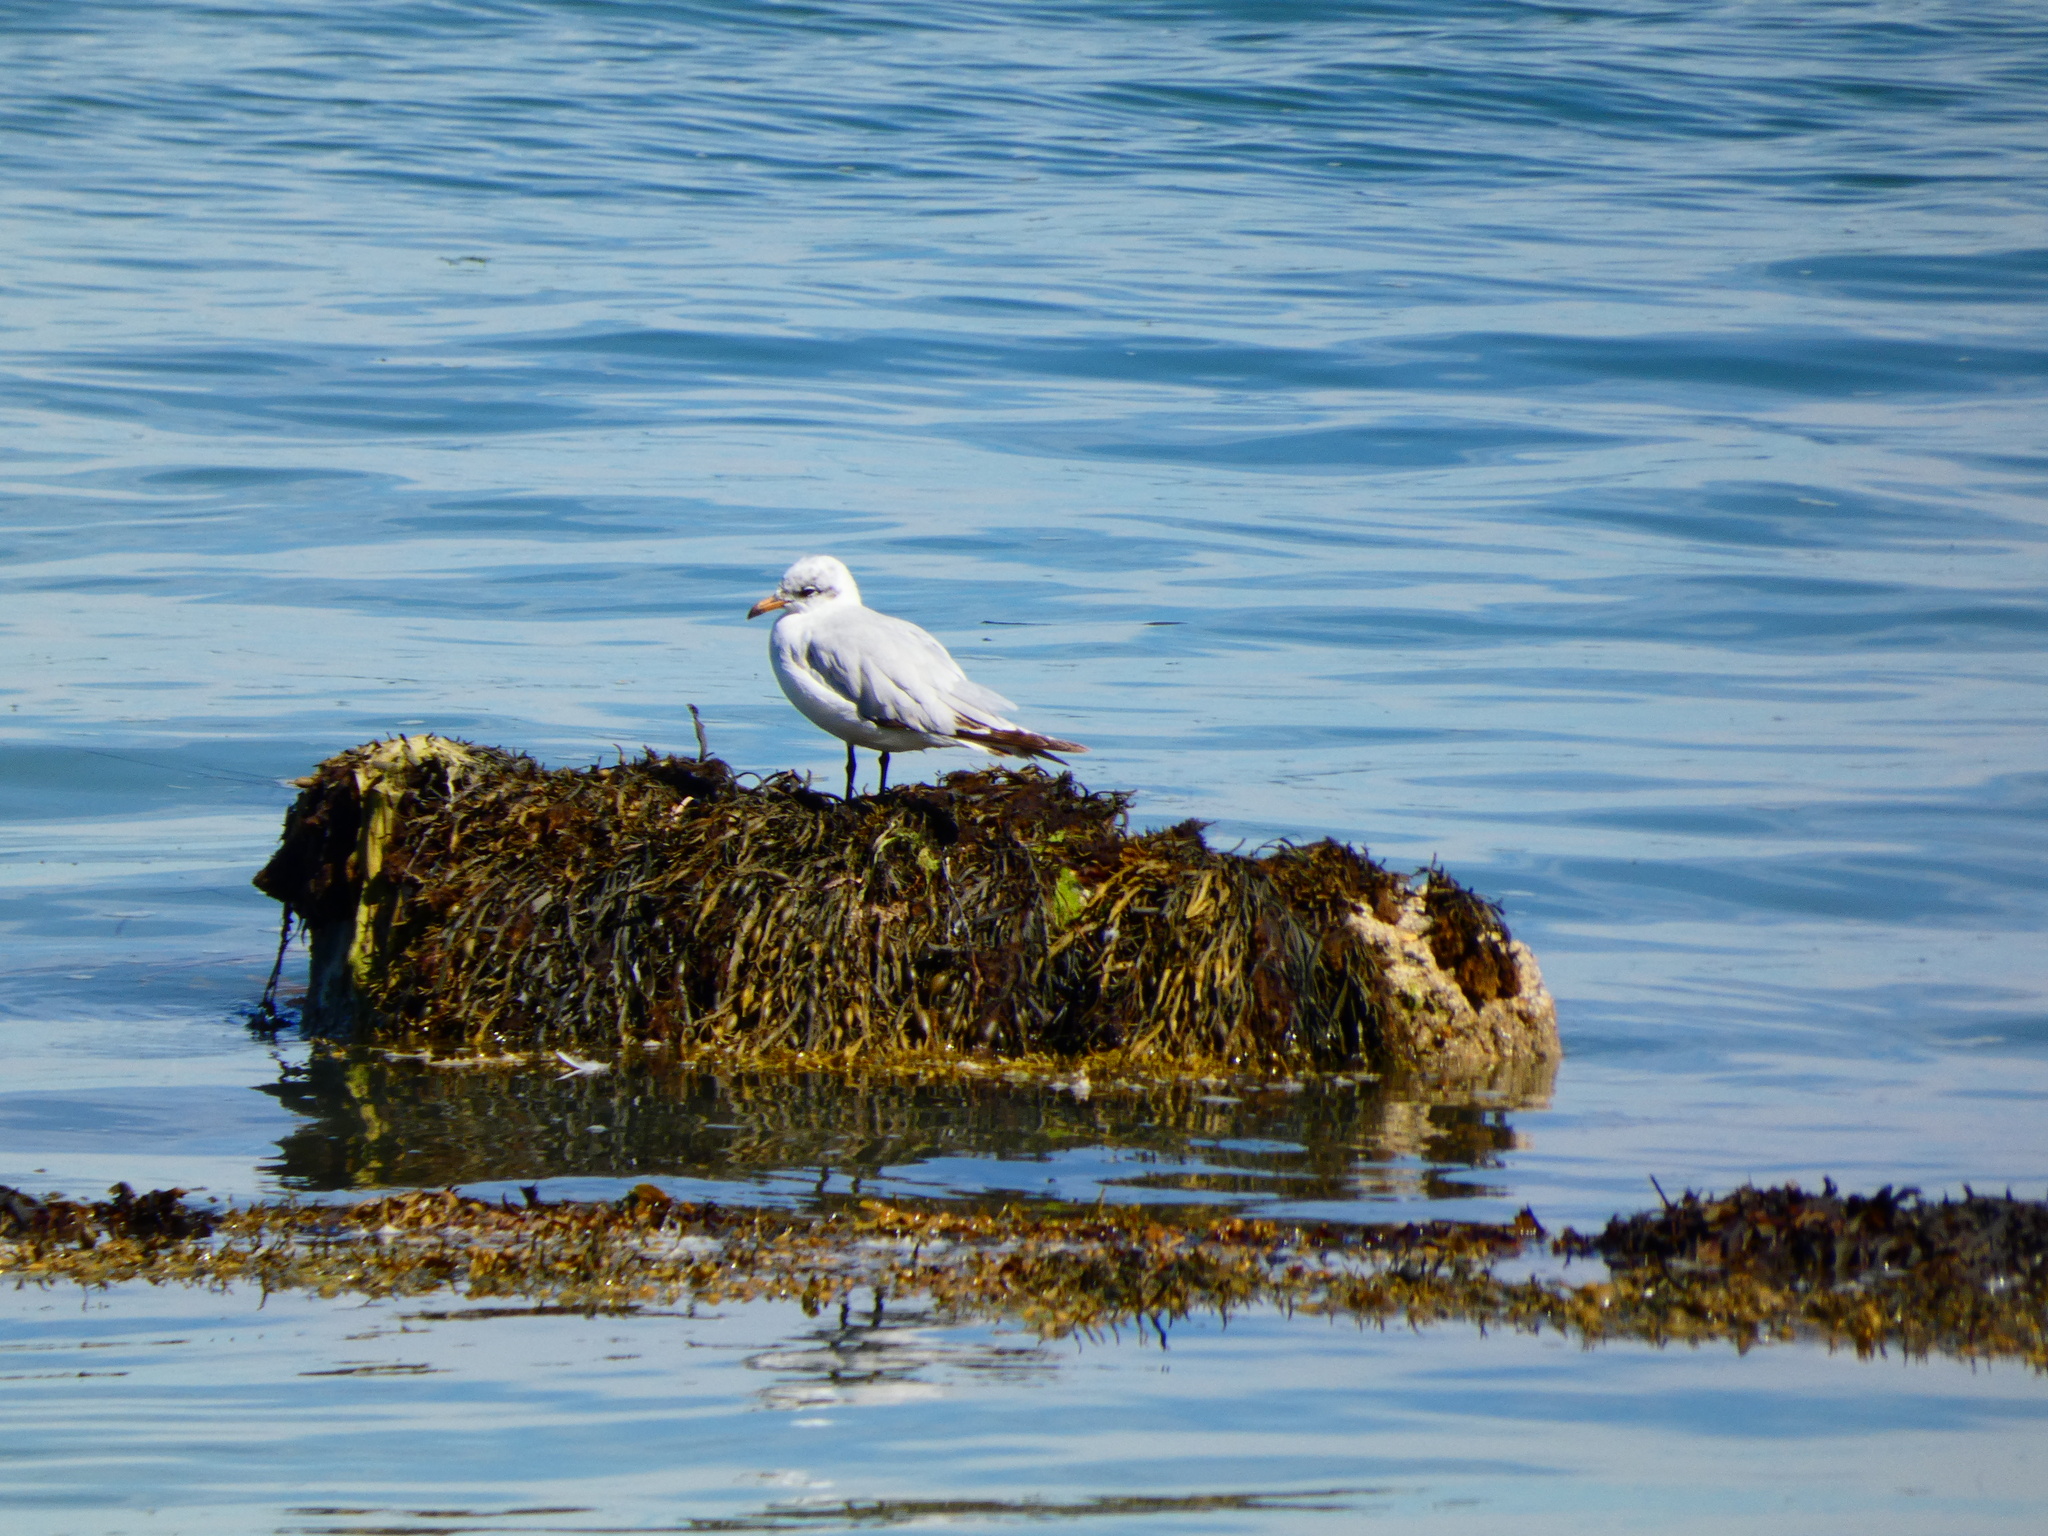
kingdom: Animalia
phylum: Chordata
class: Aves
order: Charadriiformes
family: Laridae
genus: Chroicocephalus
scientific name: Chroicocephalus ridibundus
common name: Black-headed gull
